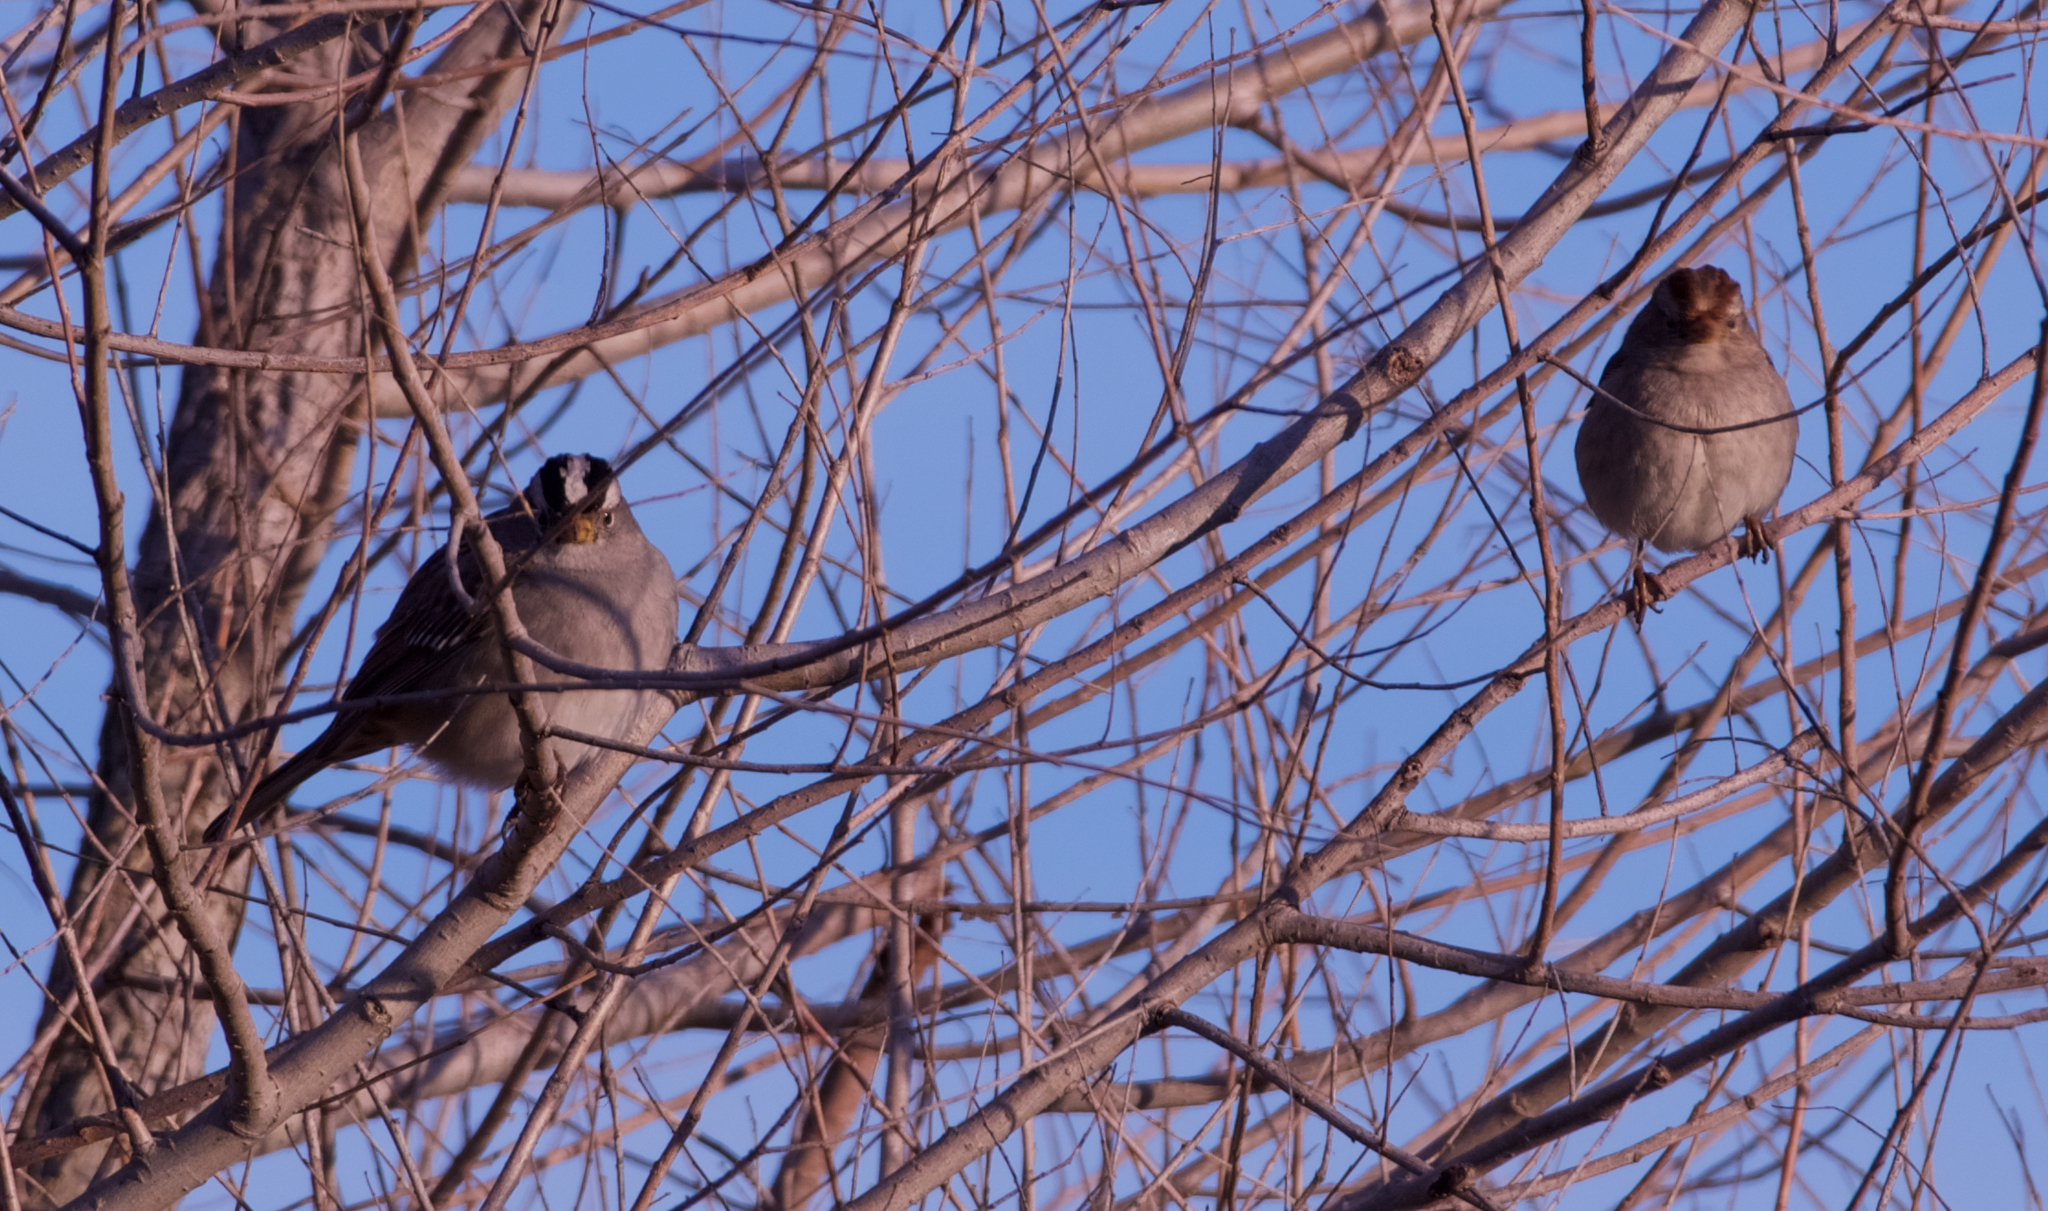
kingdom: Animalia
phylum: Chordata
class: Aves
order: Passeriformes
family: Passerellidae
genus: Zonotrichia
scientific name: Zonotrichia leucophrys
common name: White-crowned sparrow
